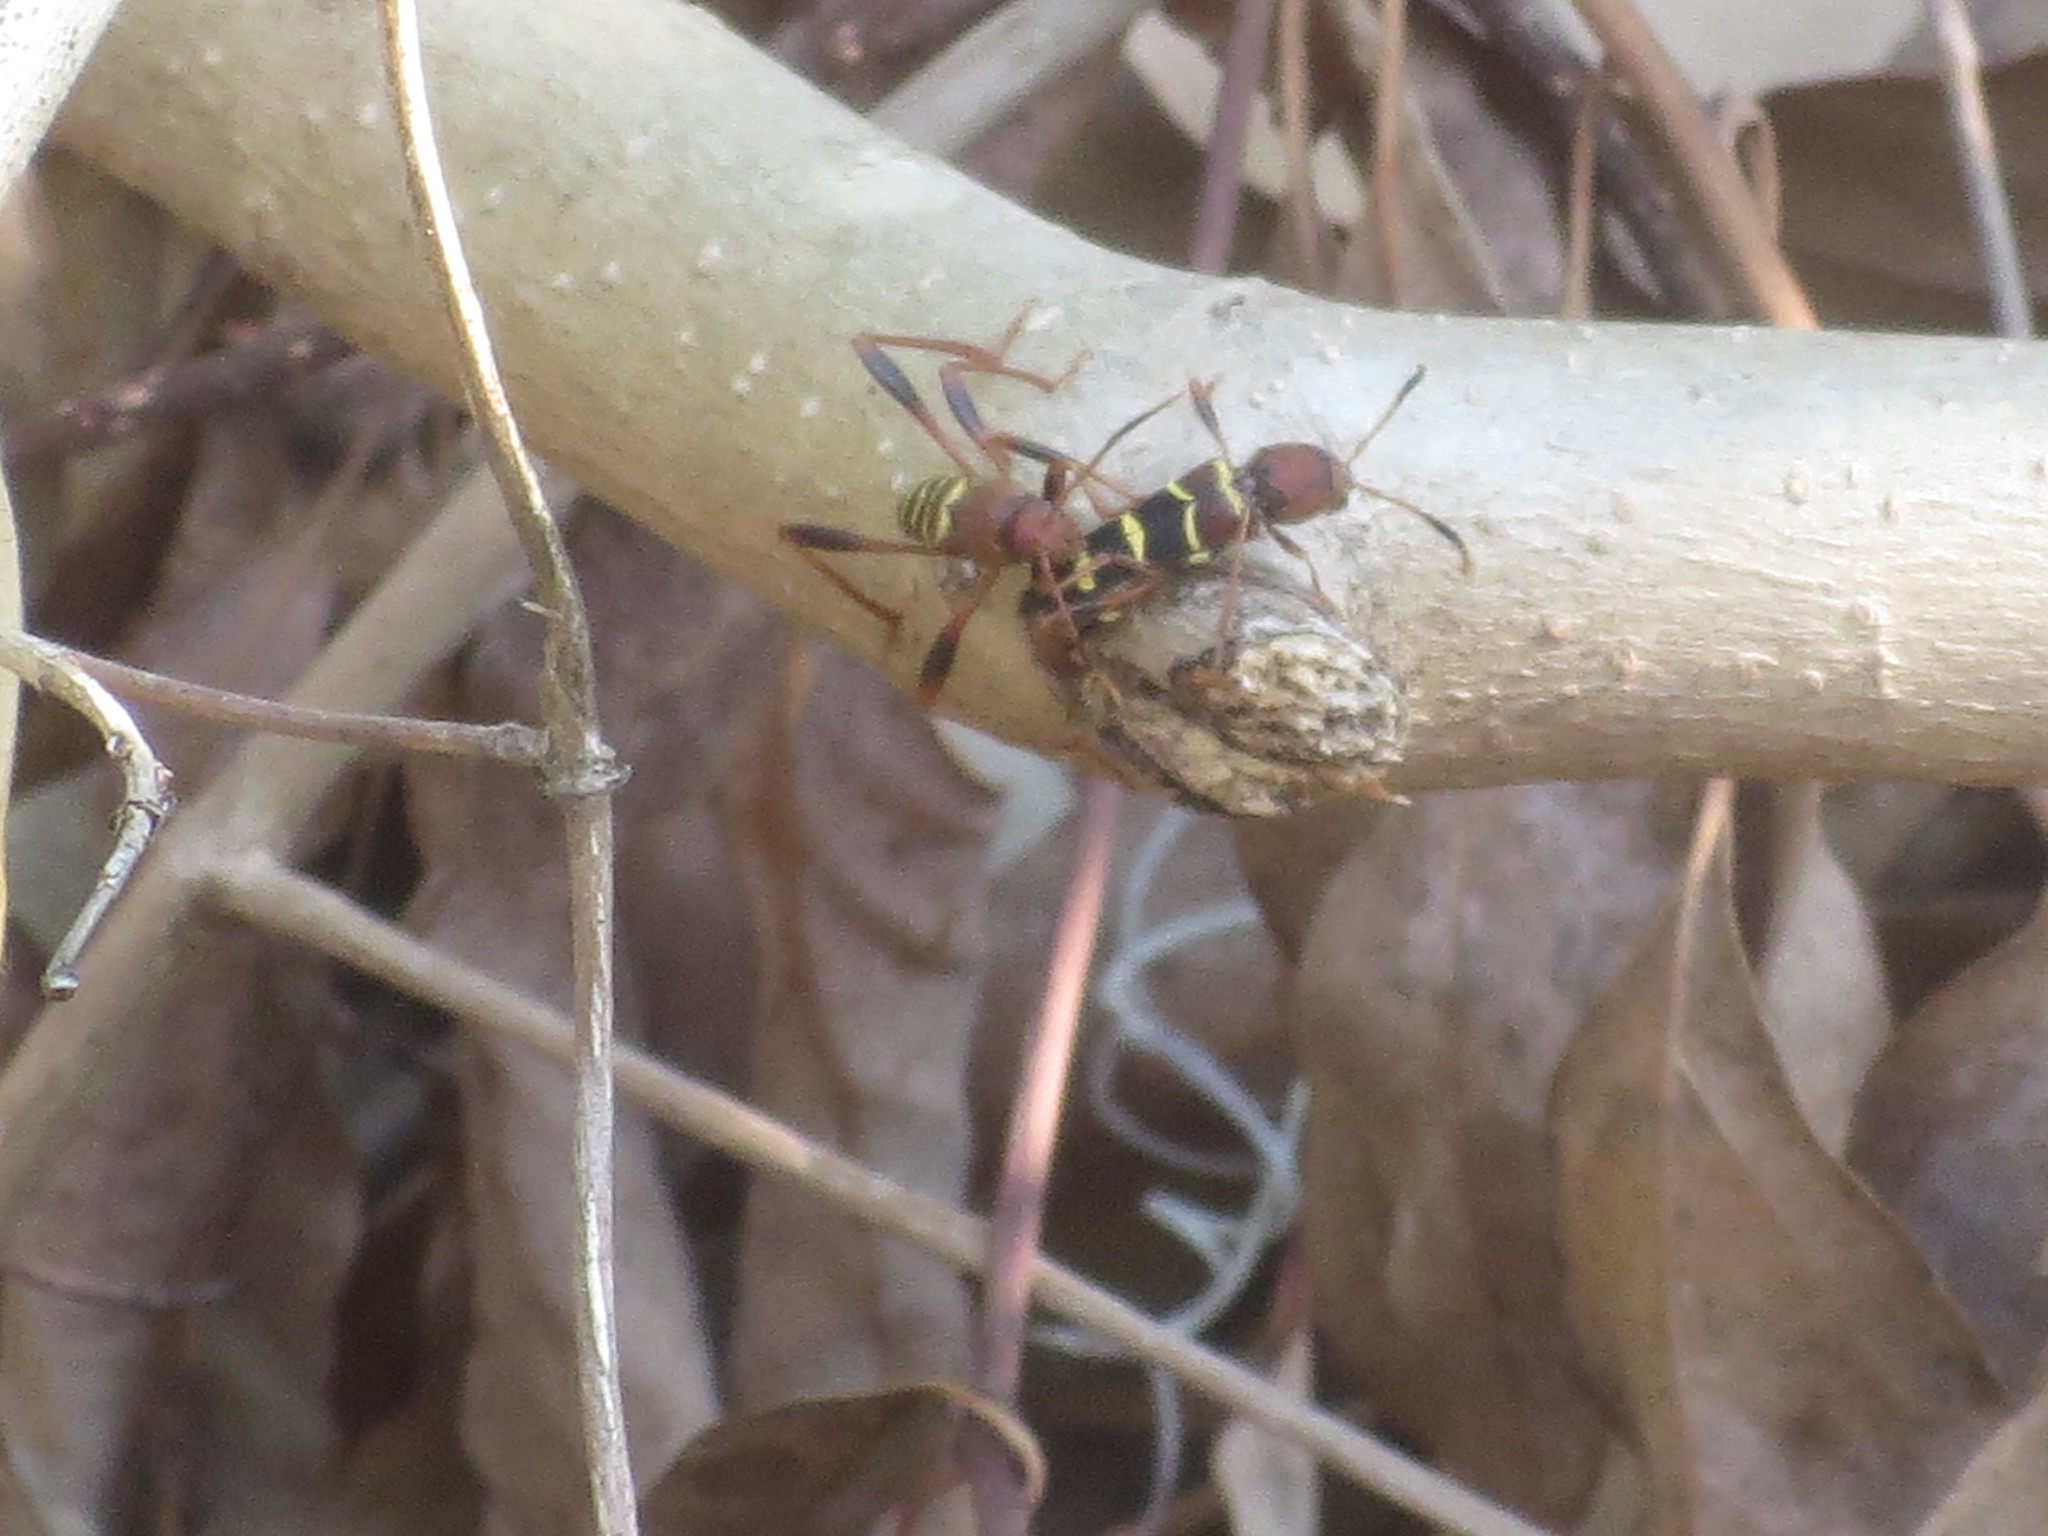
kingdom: Animalia
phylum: Arthropoda
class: Insecta
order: Coleoptera
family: Cerambycidae
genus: Neoclytus
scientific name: Neoclytus acuminatus
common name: Read-headed ash borer
